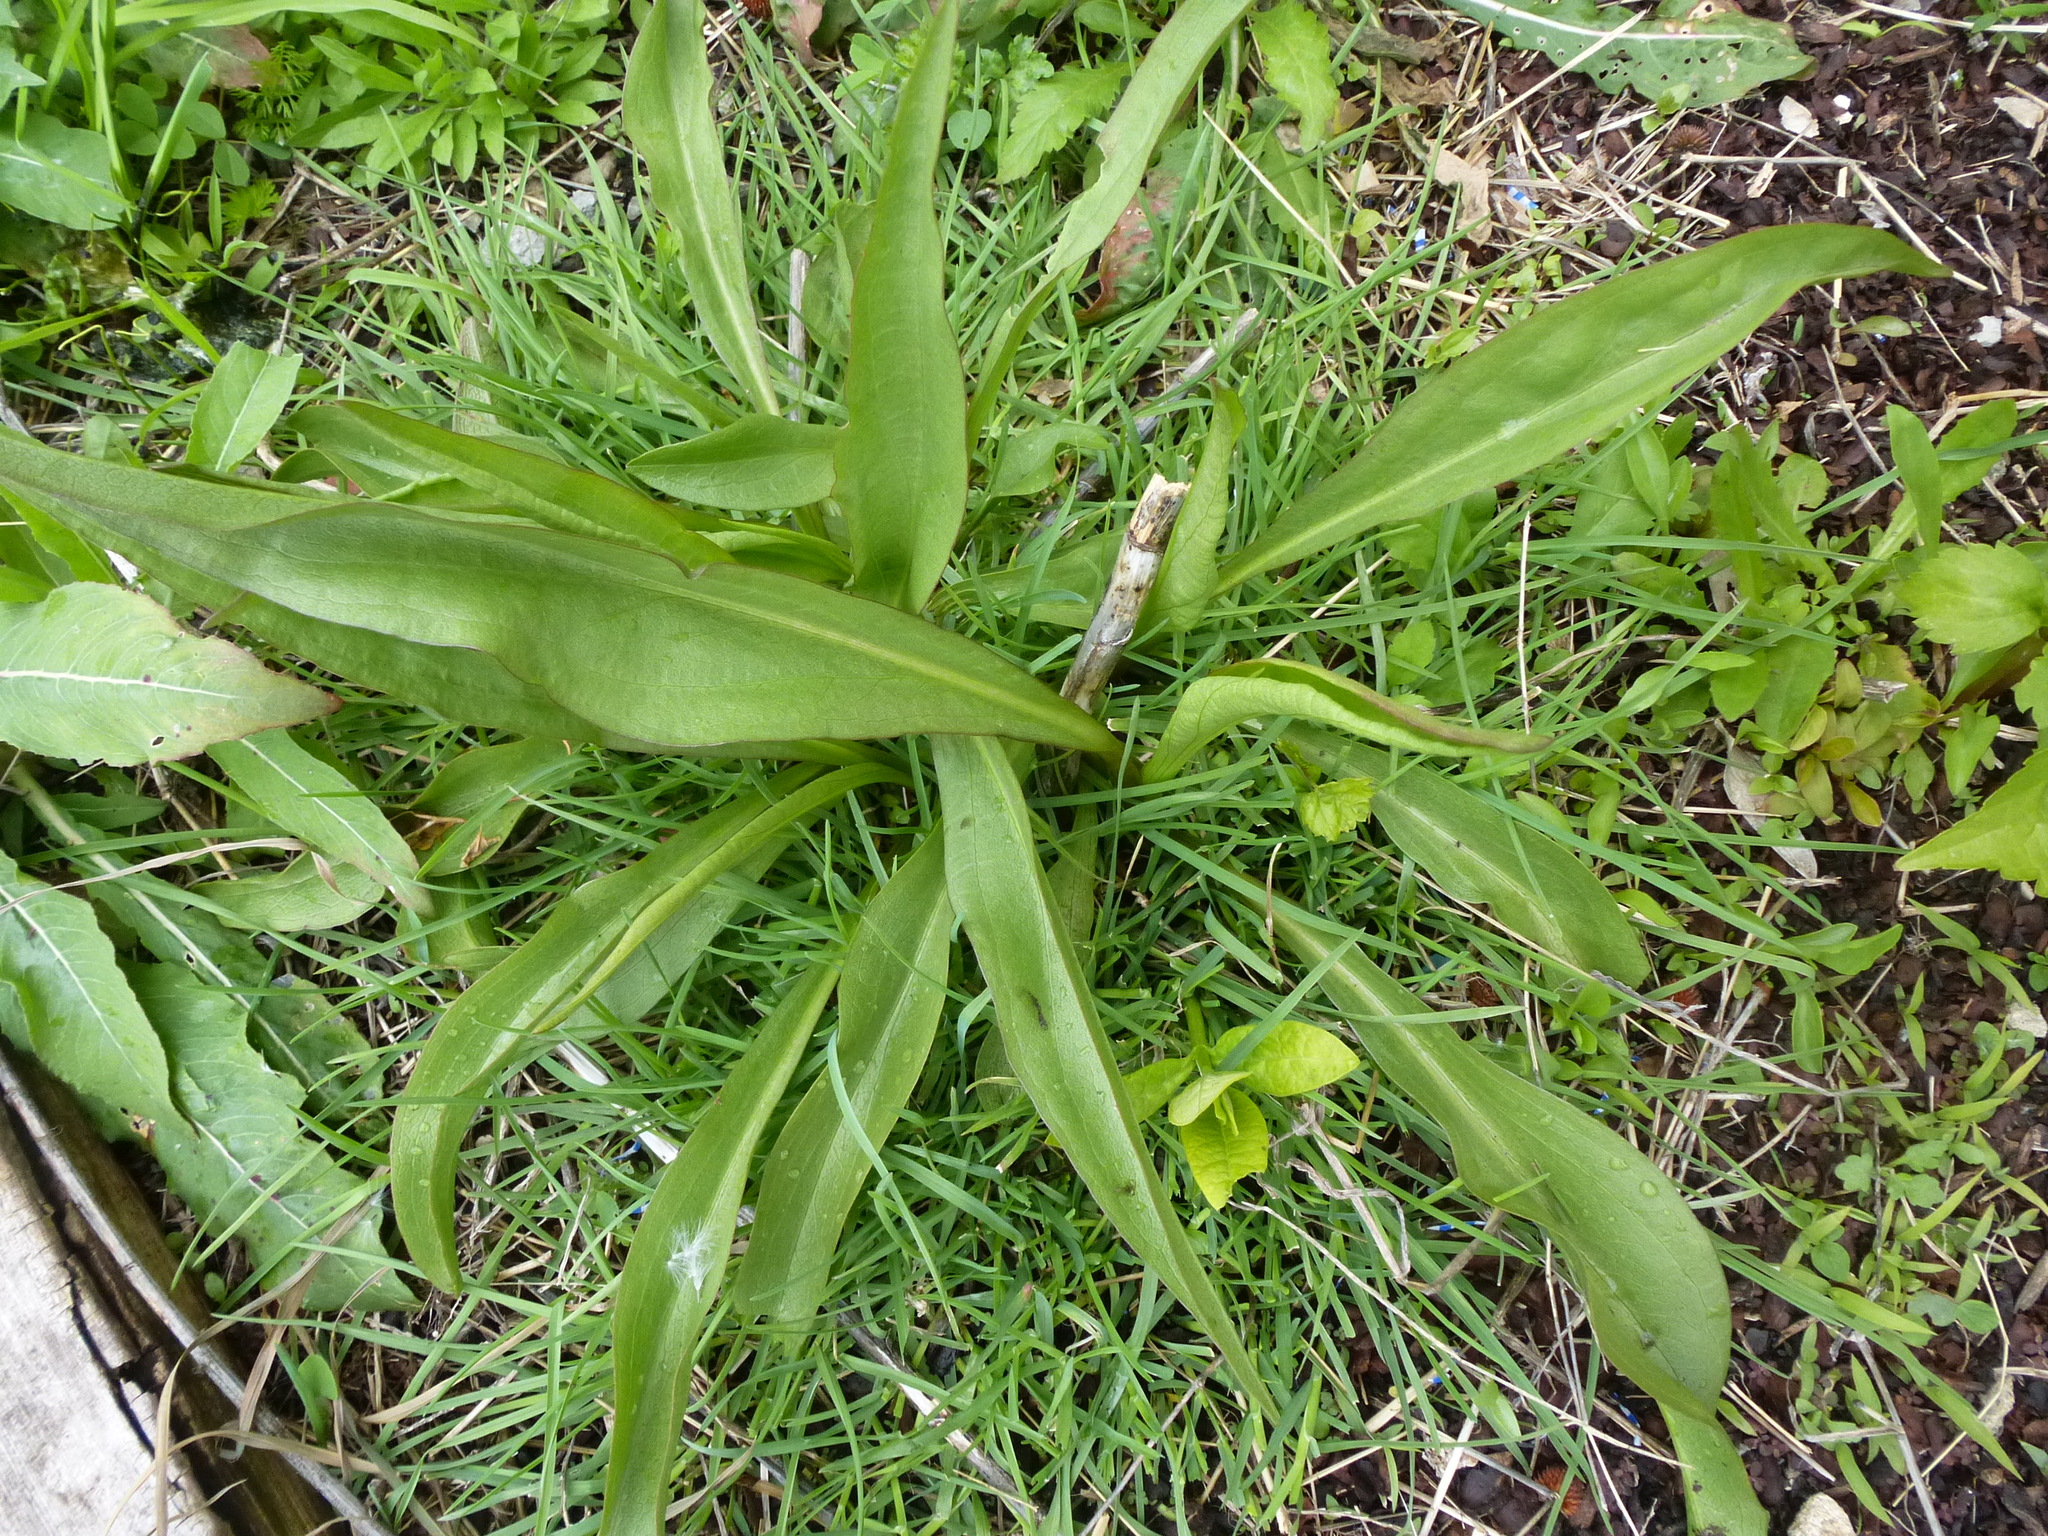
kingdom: Plantae
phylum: Tracheophyta
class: Magnoliopsida
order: Asterales
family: Asteraceae
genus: Solidago
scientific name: Solidago sempervirens
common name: Salt-marsh goldenrod
